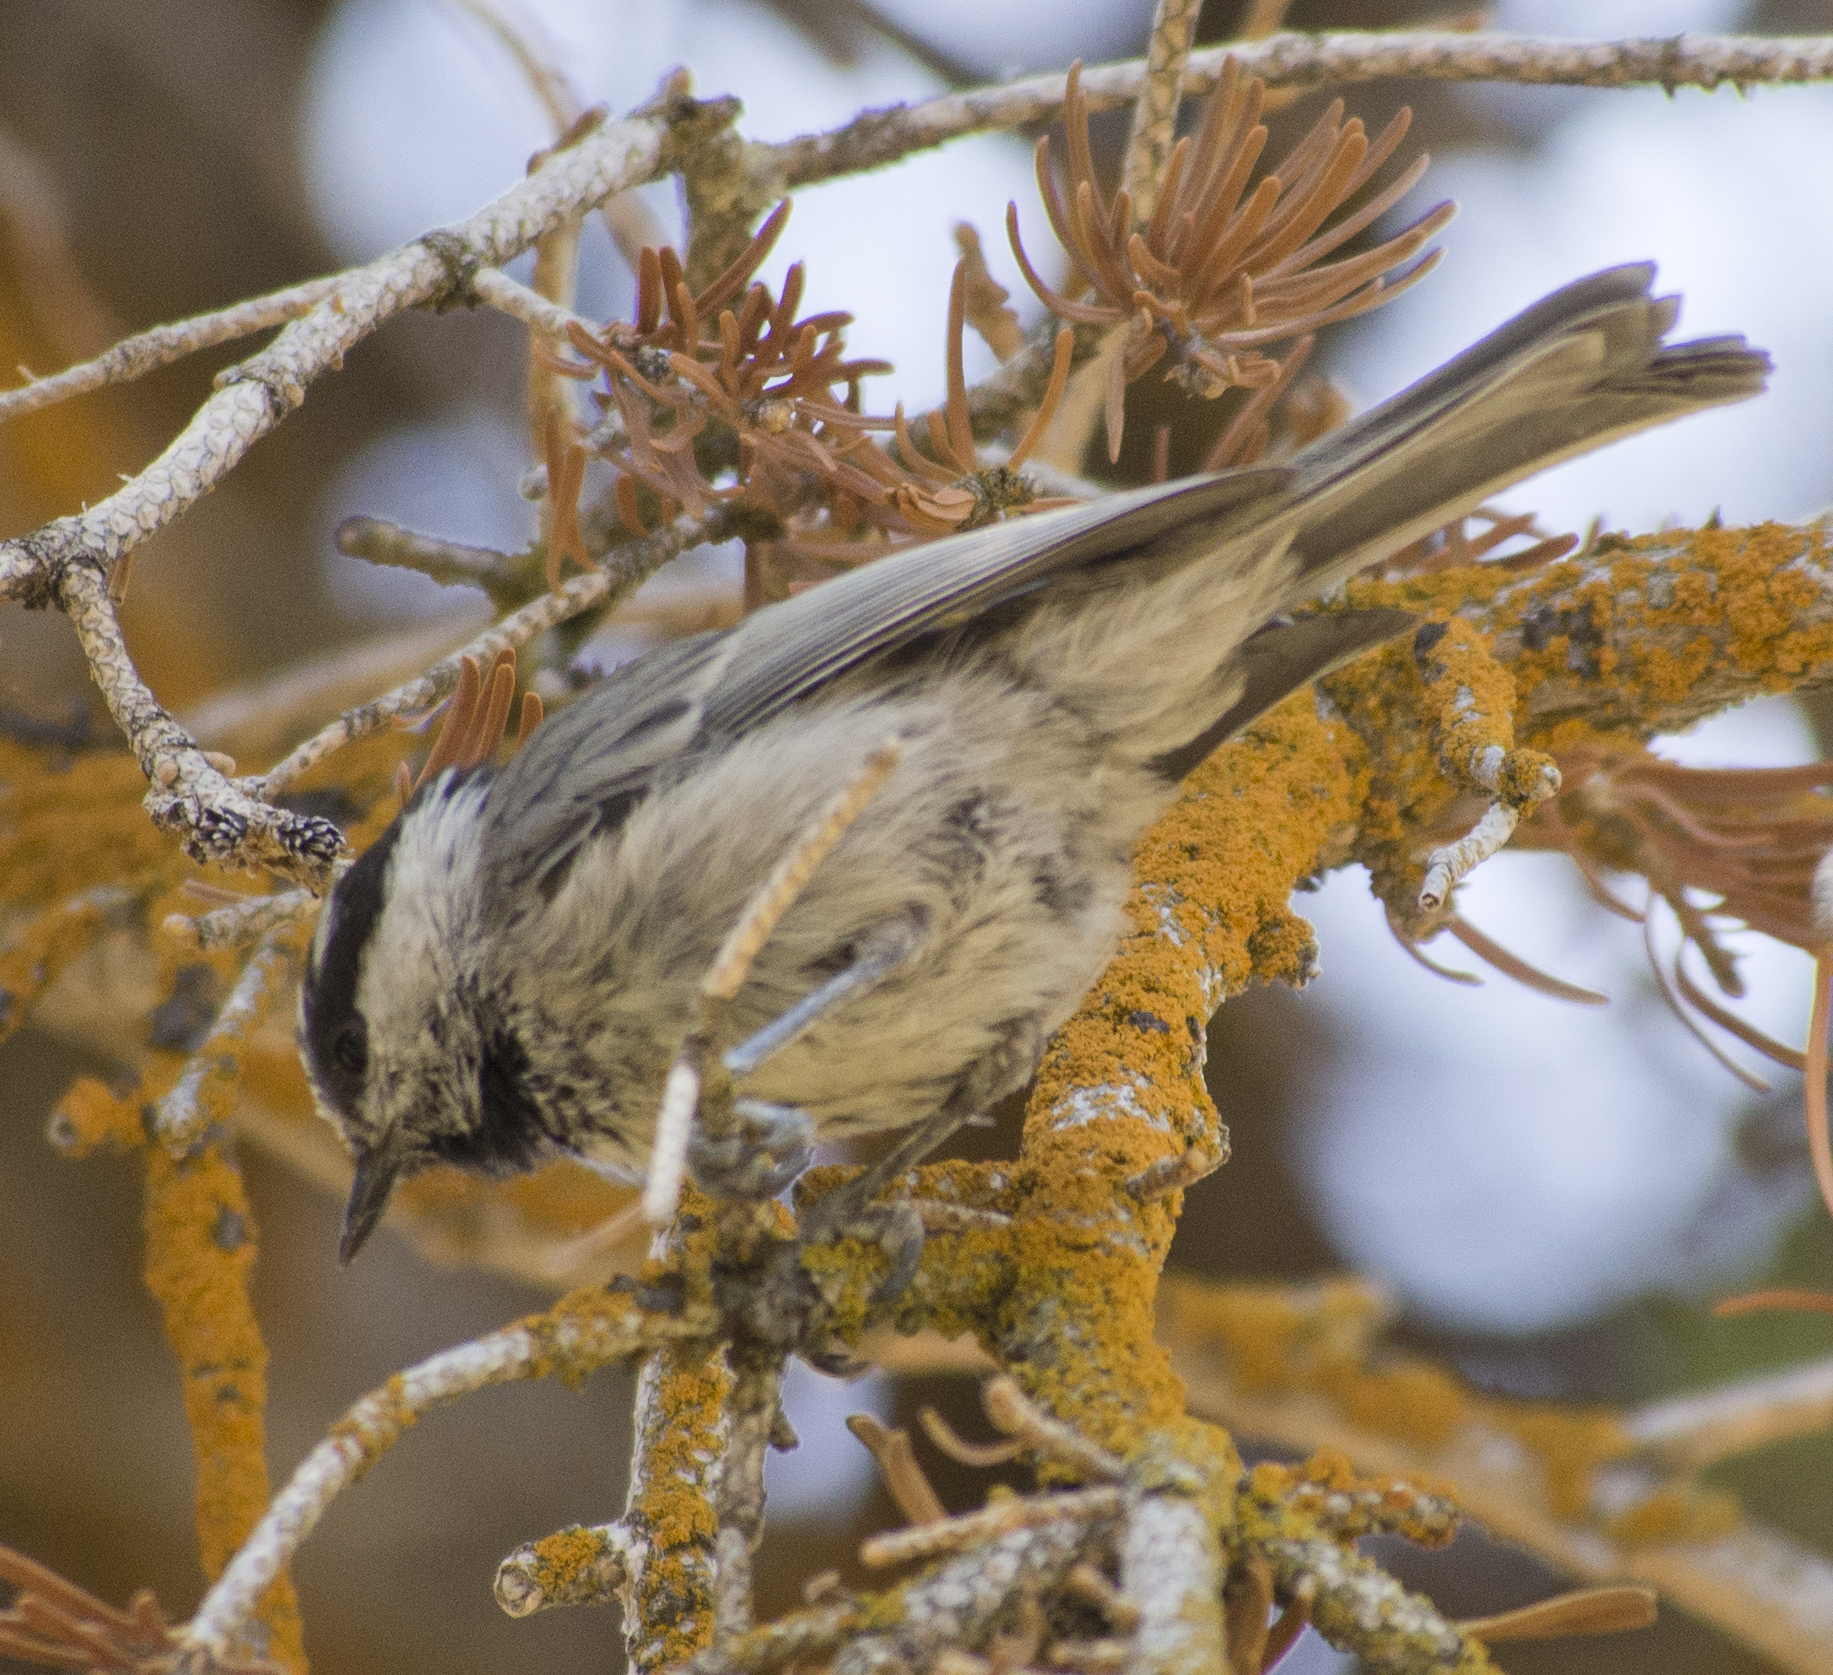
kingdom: Animalia
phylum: Chordata
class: Aves
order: Passeriformes
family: Paridae
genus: Poecile
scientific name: Poecile gambeli
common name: Mountain chickadee
